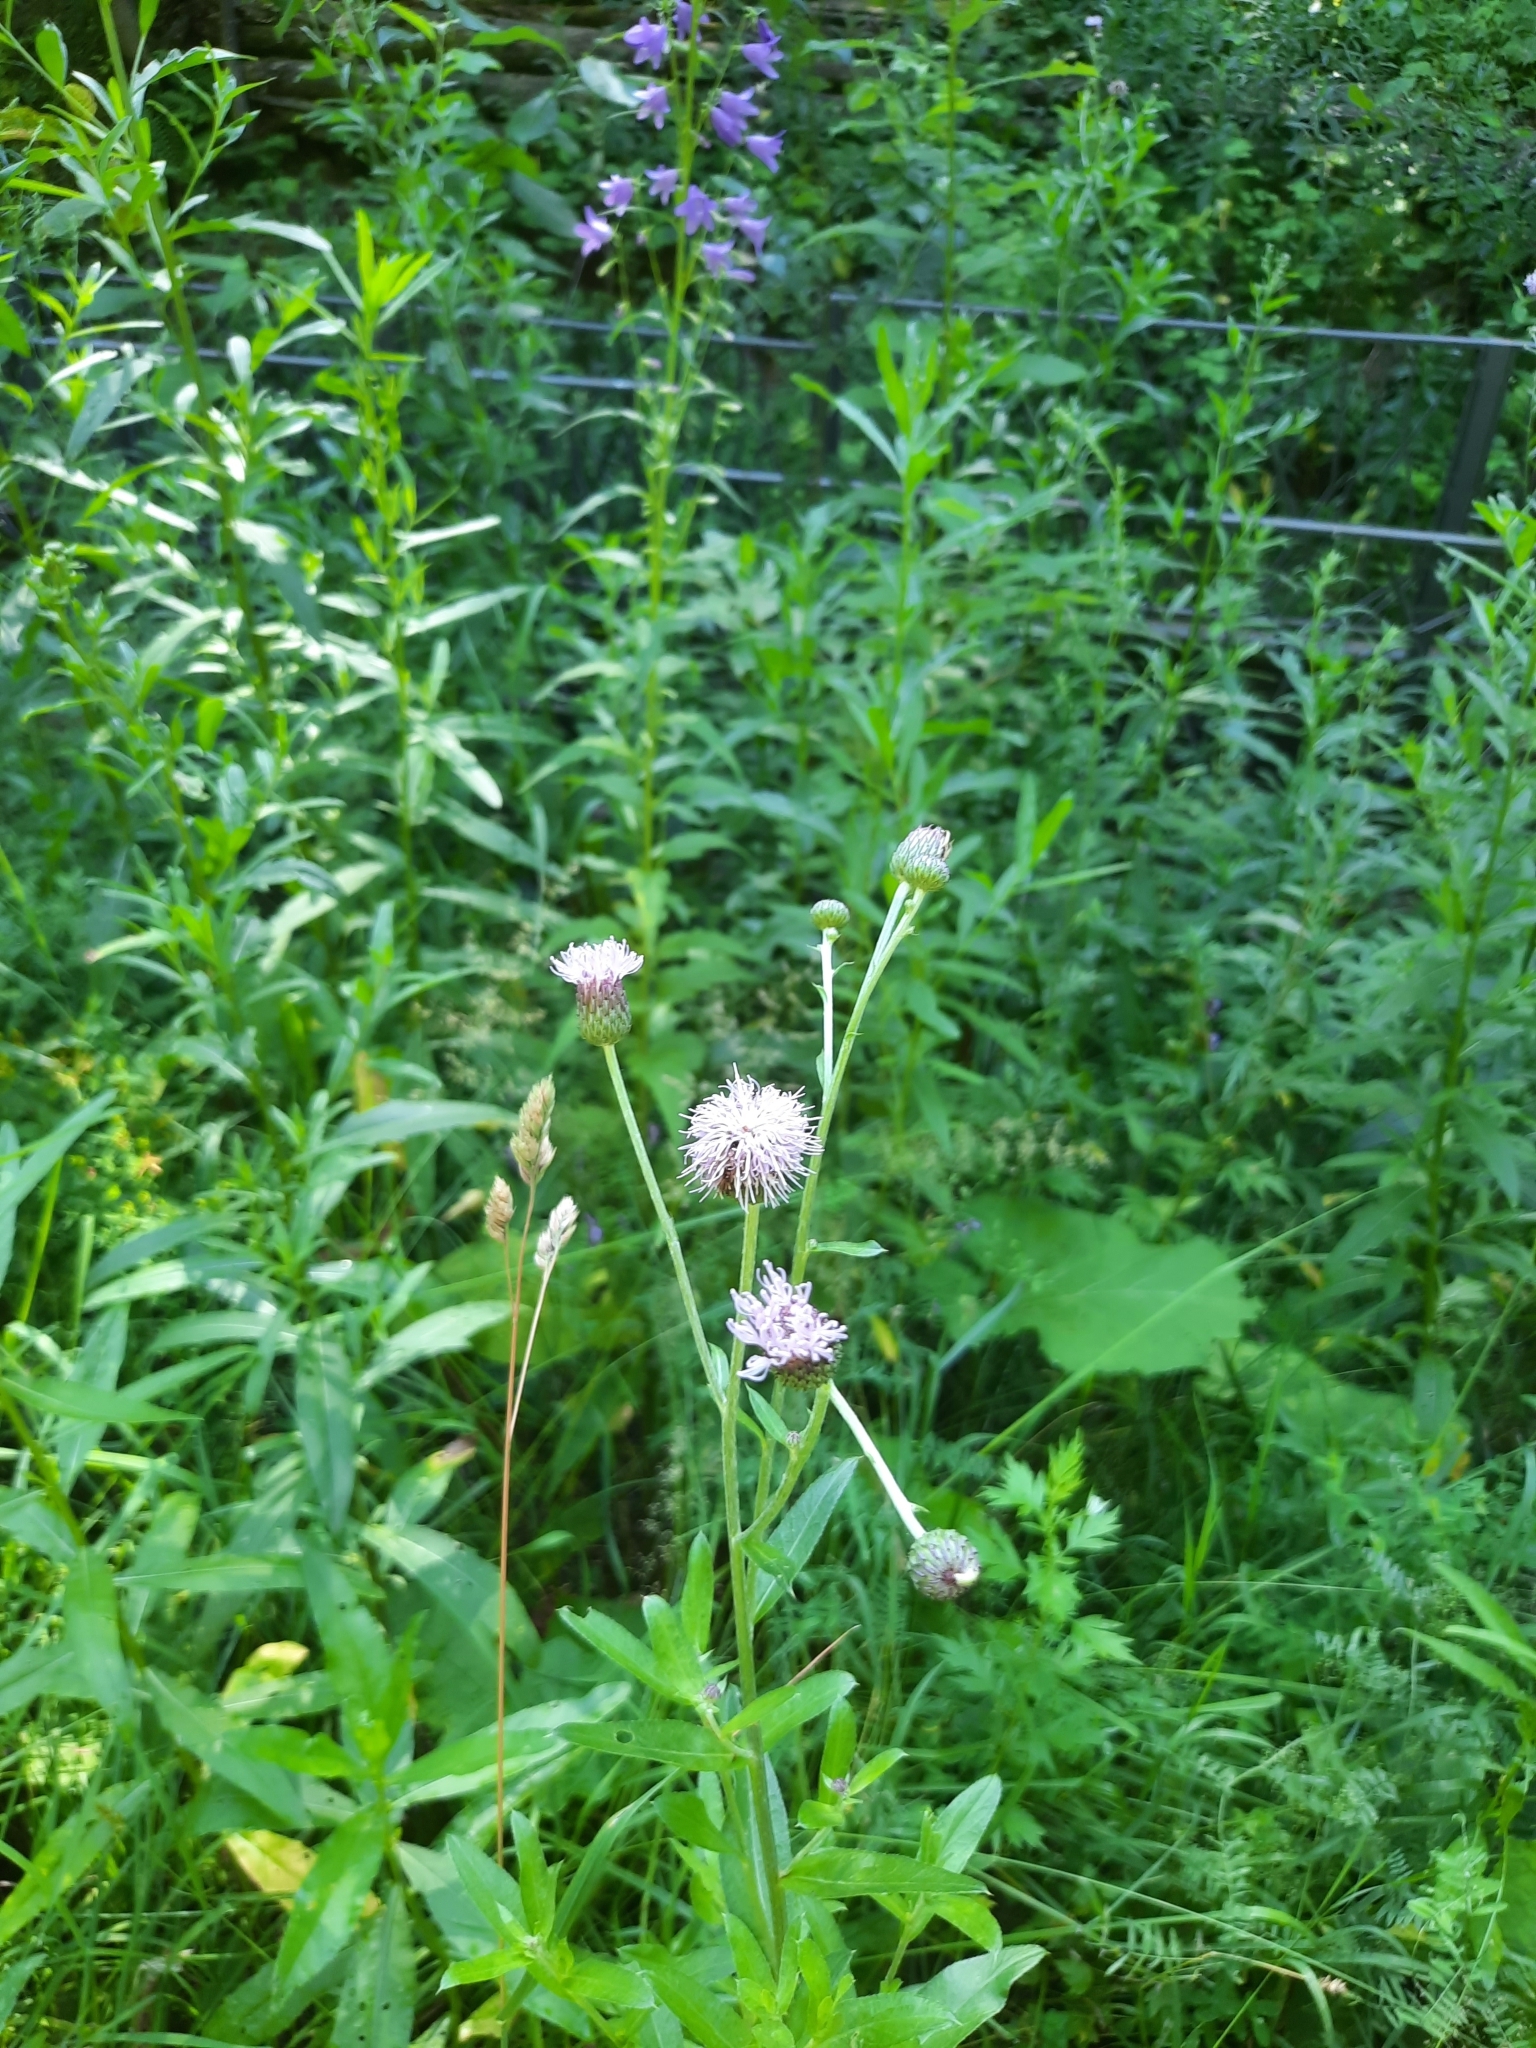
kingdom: Plantae
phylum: Tracheophyta
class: Magnoliopsida
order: Asterales
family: Asteraceae
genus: Cirsium
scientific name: Cirsium arvense
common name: Creeping thistle
